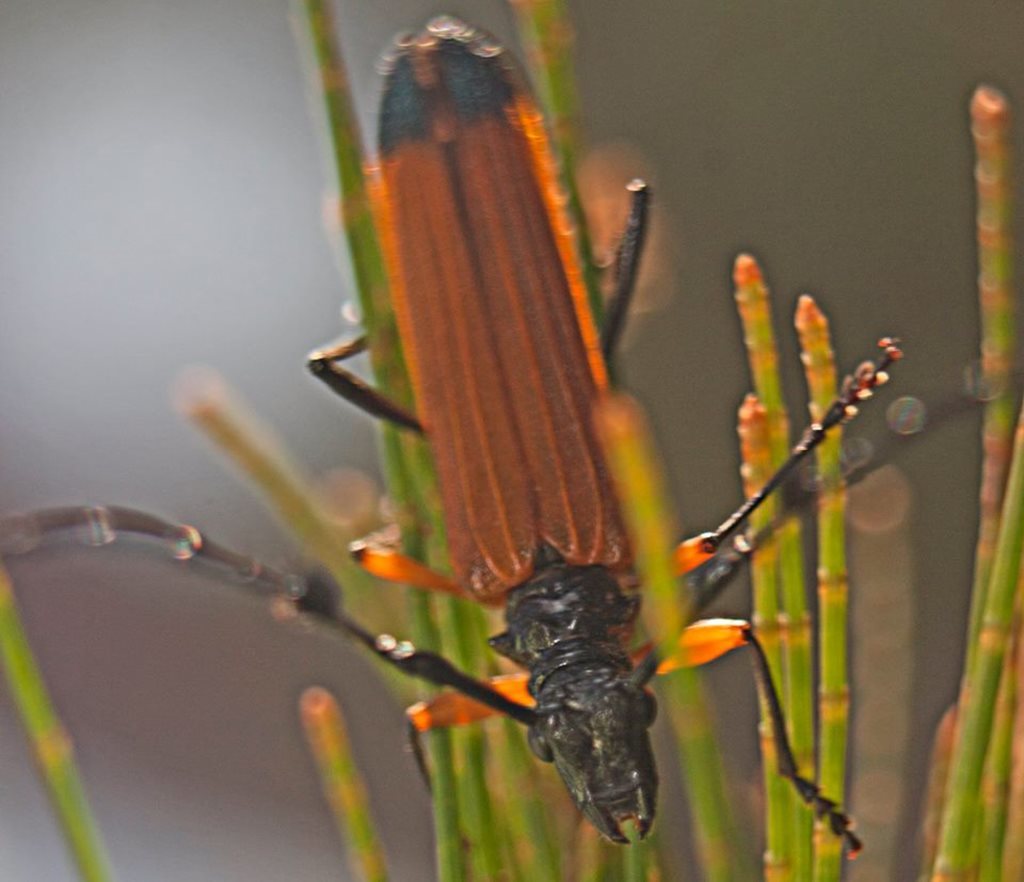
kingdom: Animalia
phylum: Arthropoda
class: Insecta
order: Coleoptera
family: Cerambycidae
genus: Tritocosmia
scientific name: Tritocosmia atricilla
